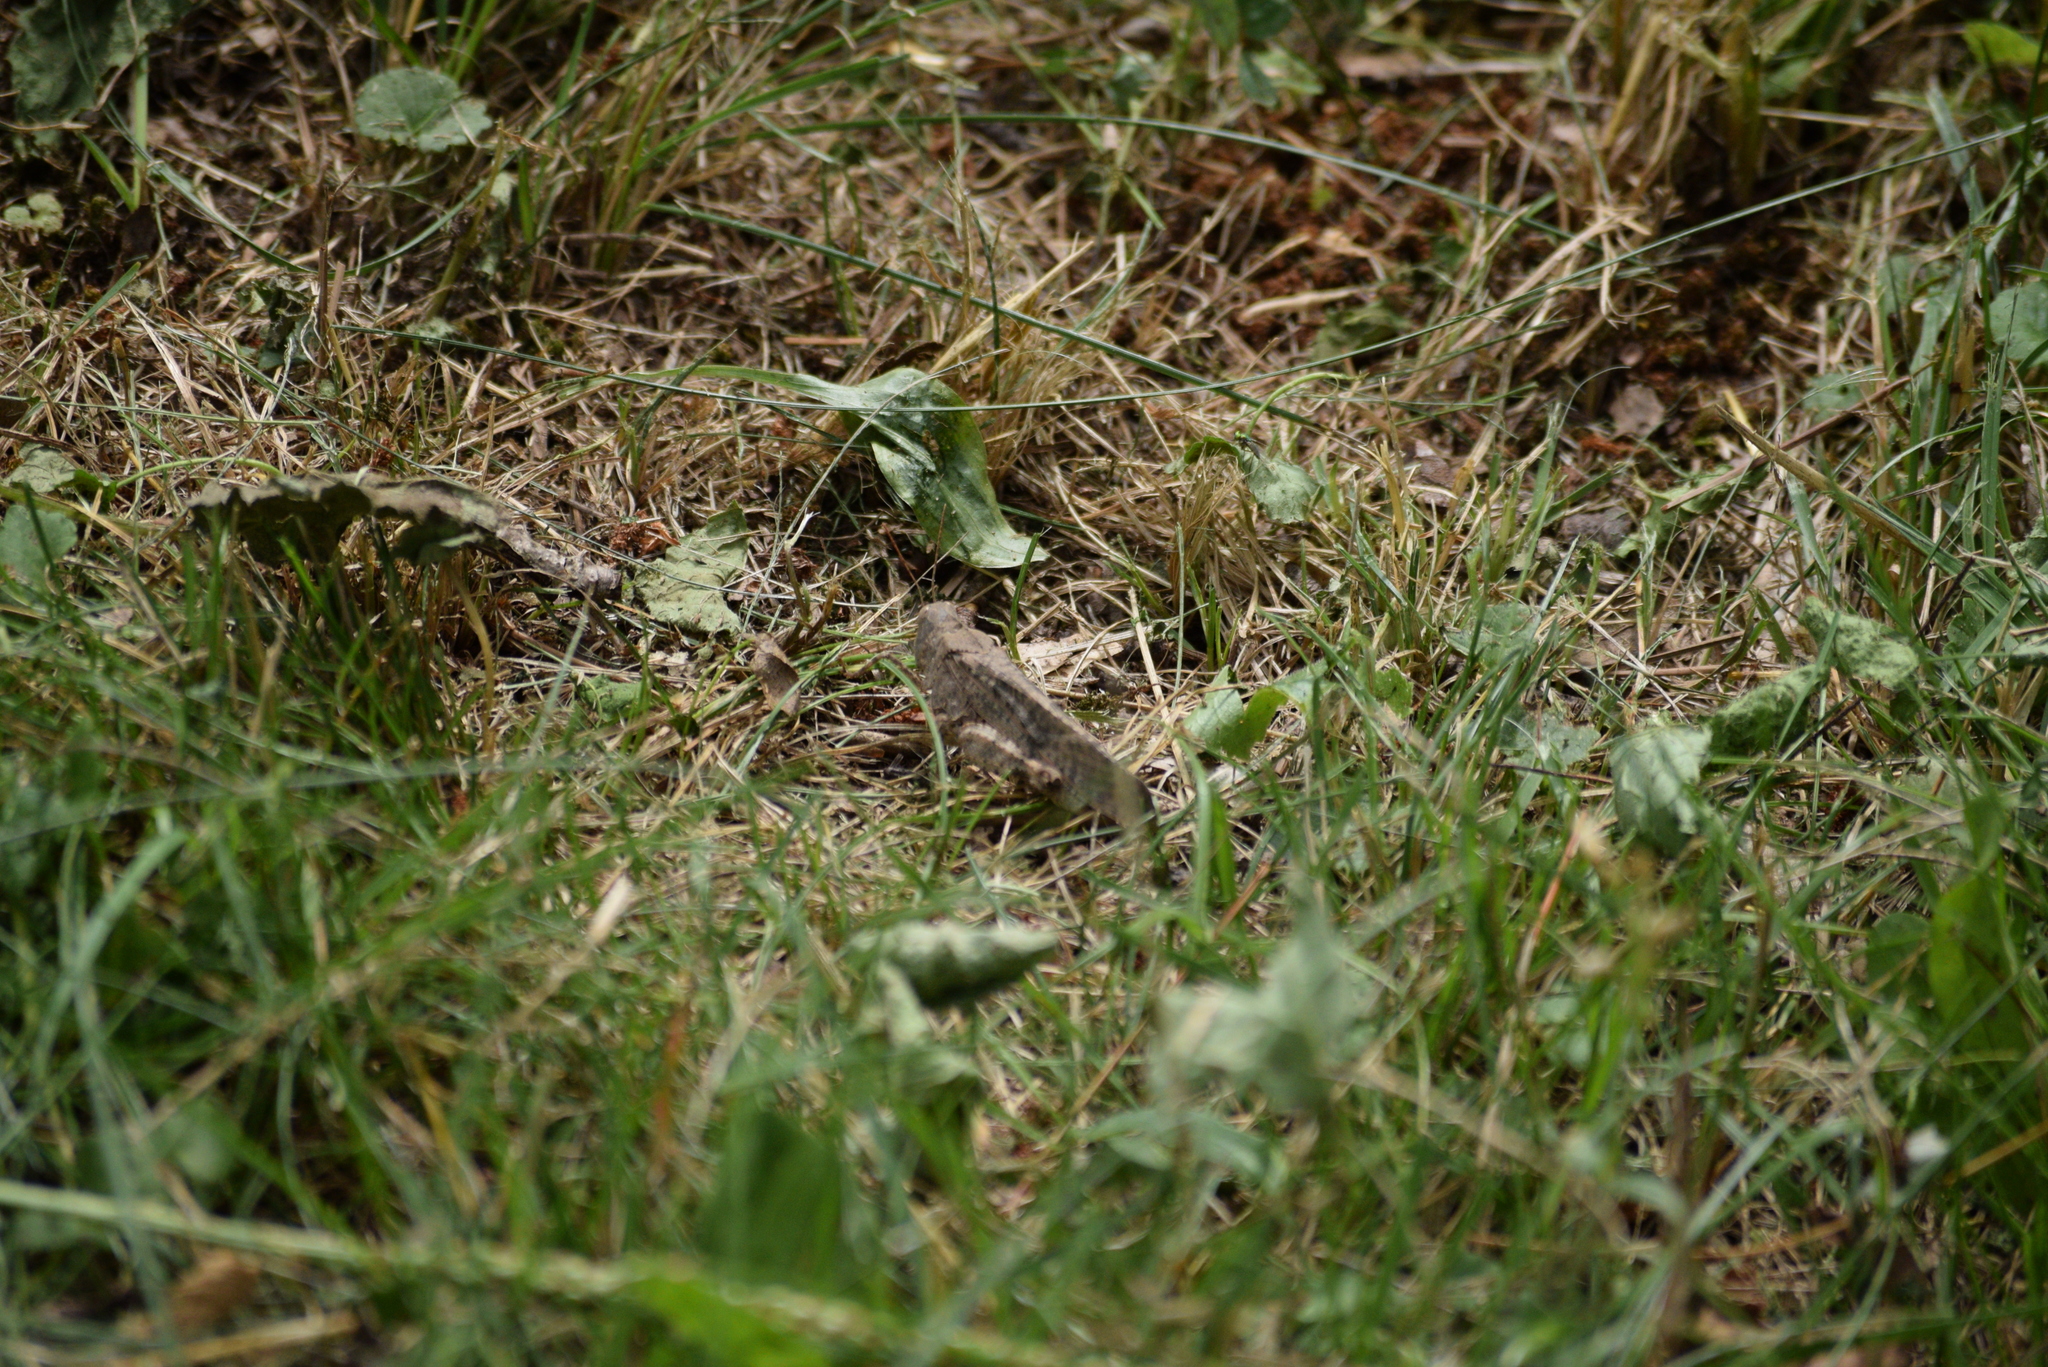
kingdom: Animalia
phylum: Arthropoda
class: Insecta
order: Orthoptera
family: Acrididae
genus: Dissosteira
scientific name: Dissosteira carolina
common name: Carolina grasshopper
